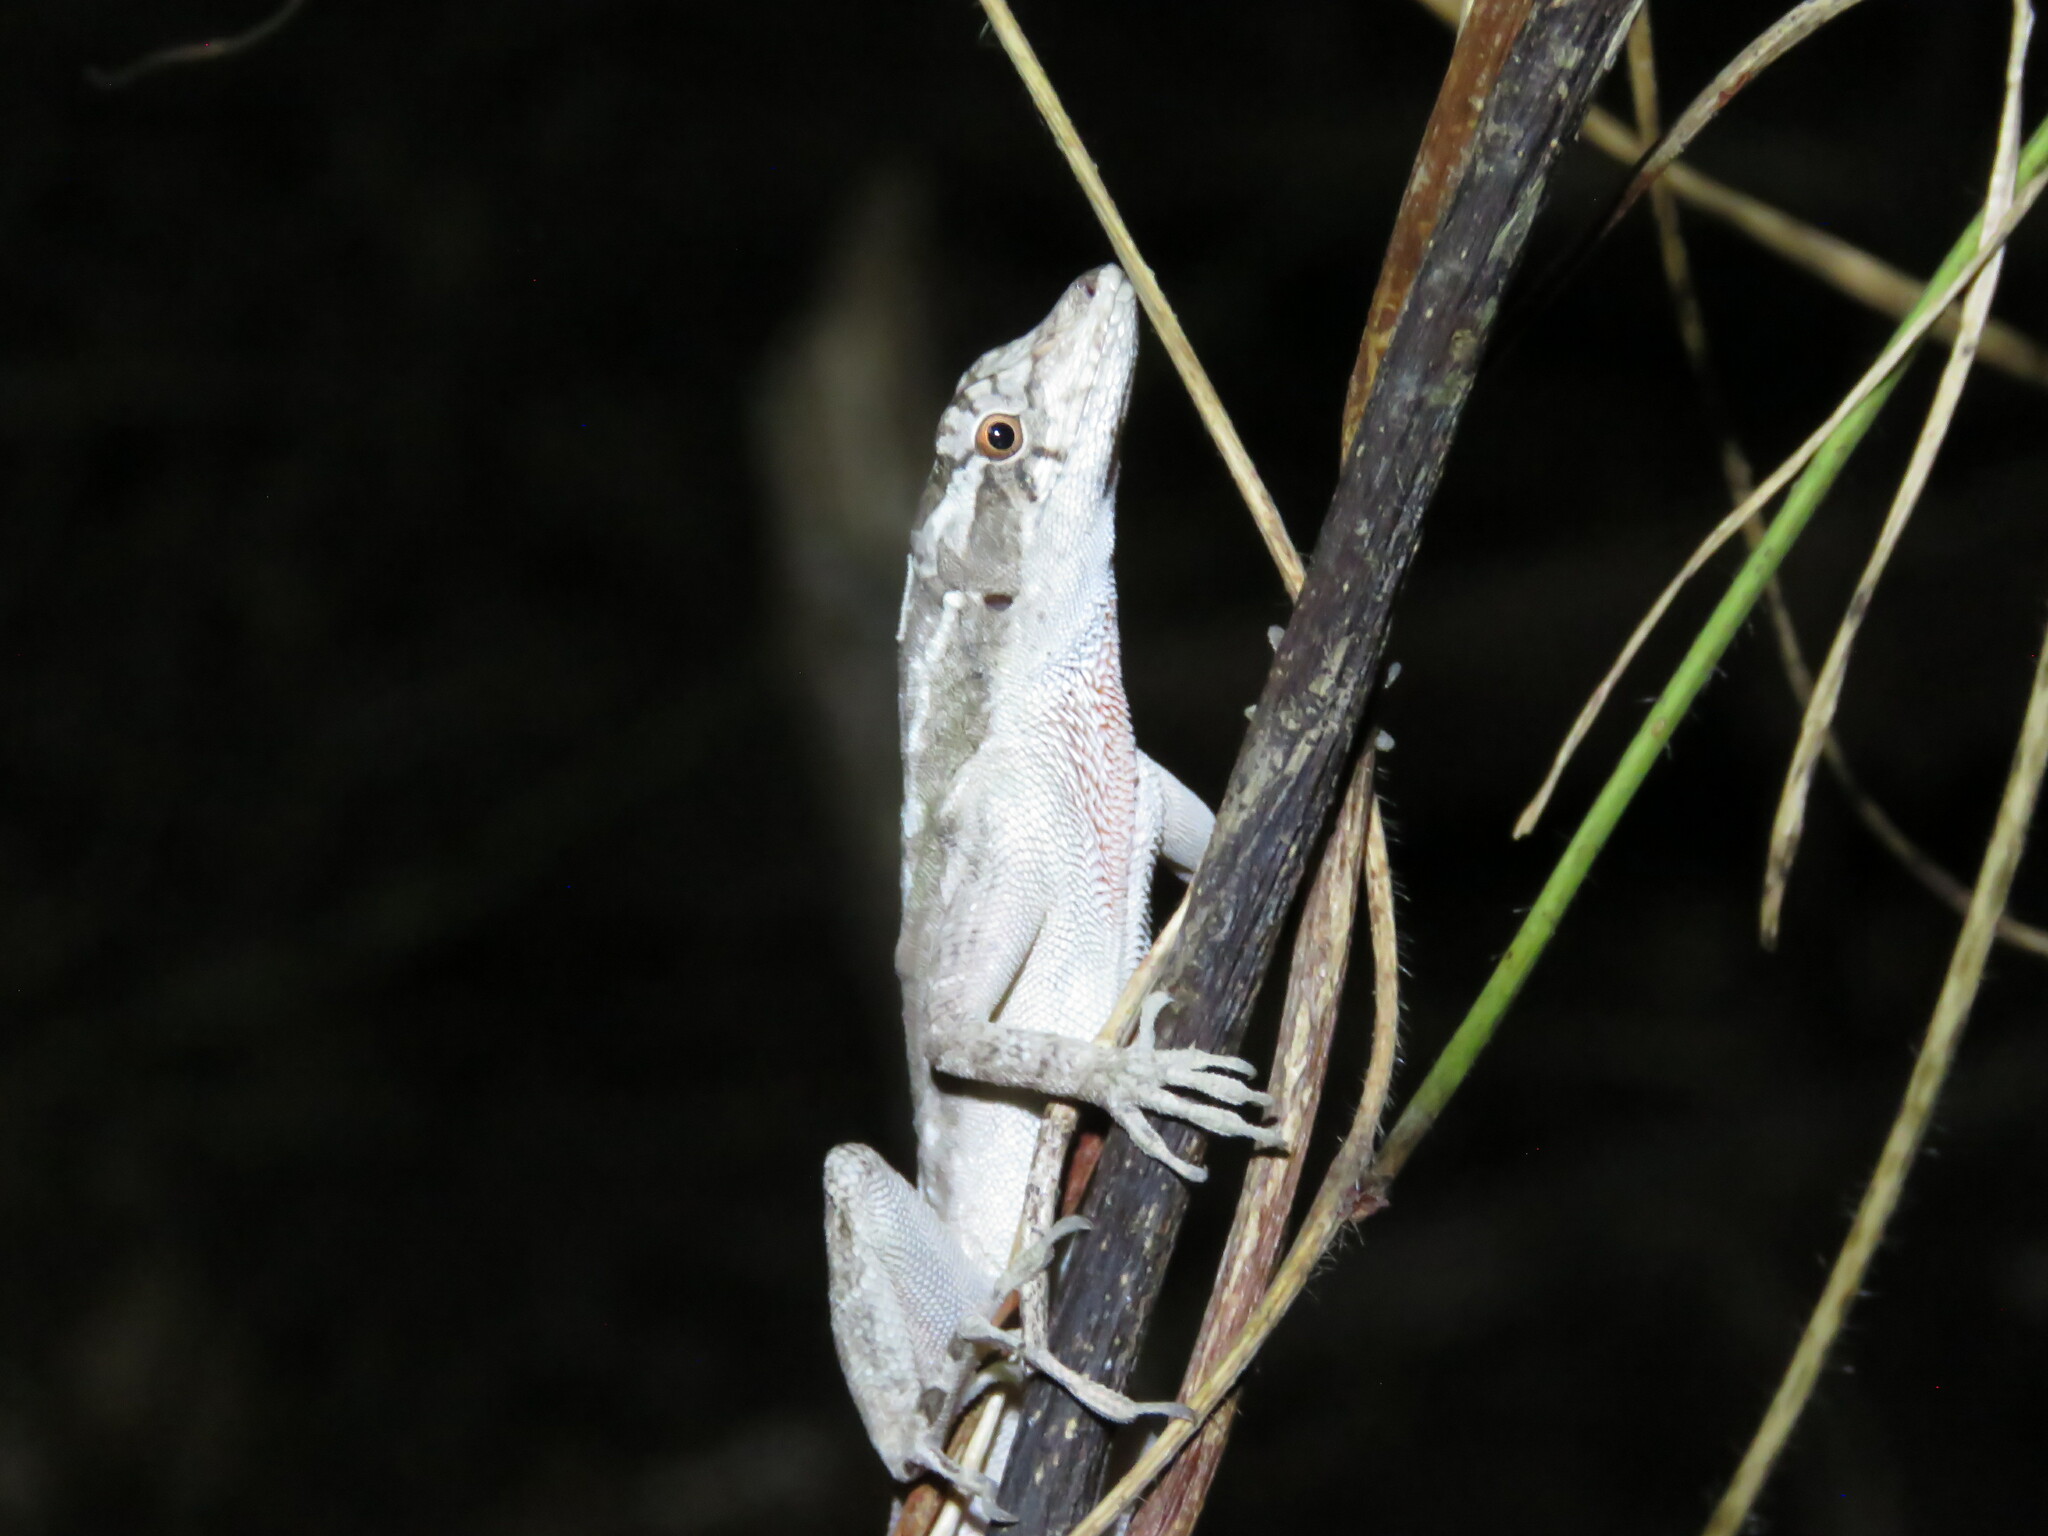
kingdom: Animalia
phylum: Chordata
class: Squamata
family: Dactyloidae
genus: Anolis
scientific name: Anolis lemurinus
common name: Ghost anole
